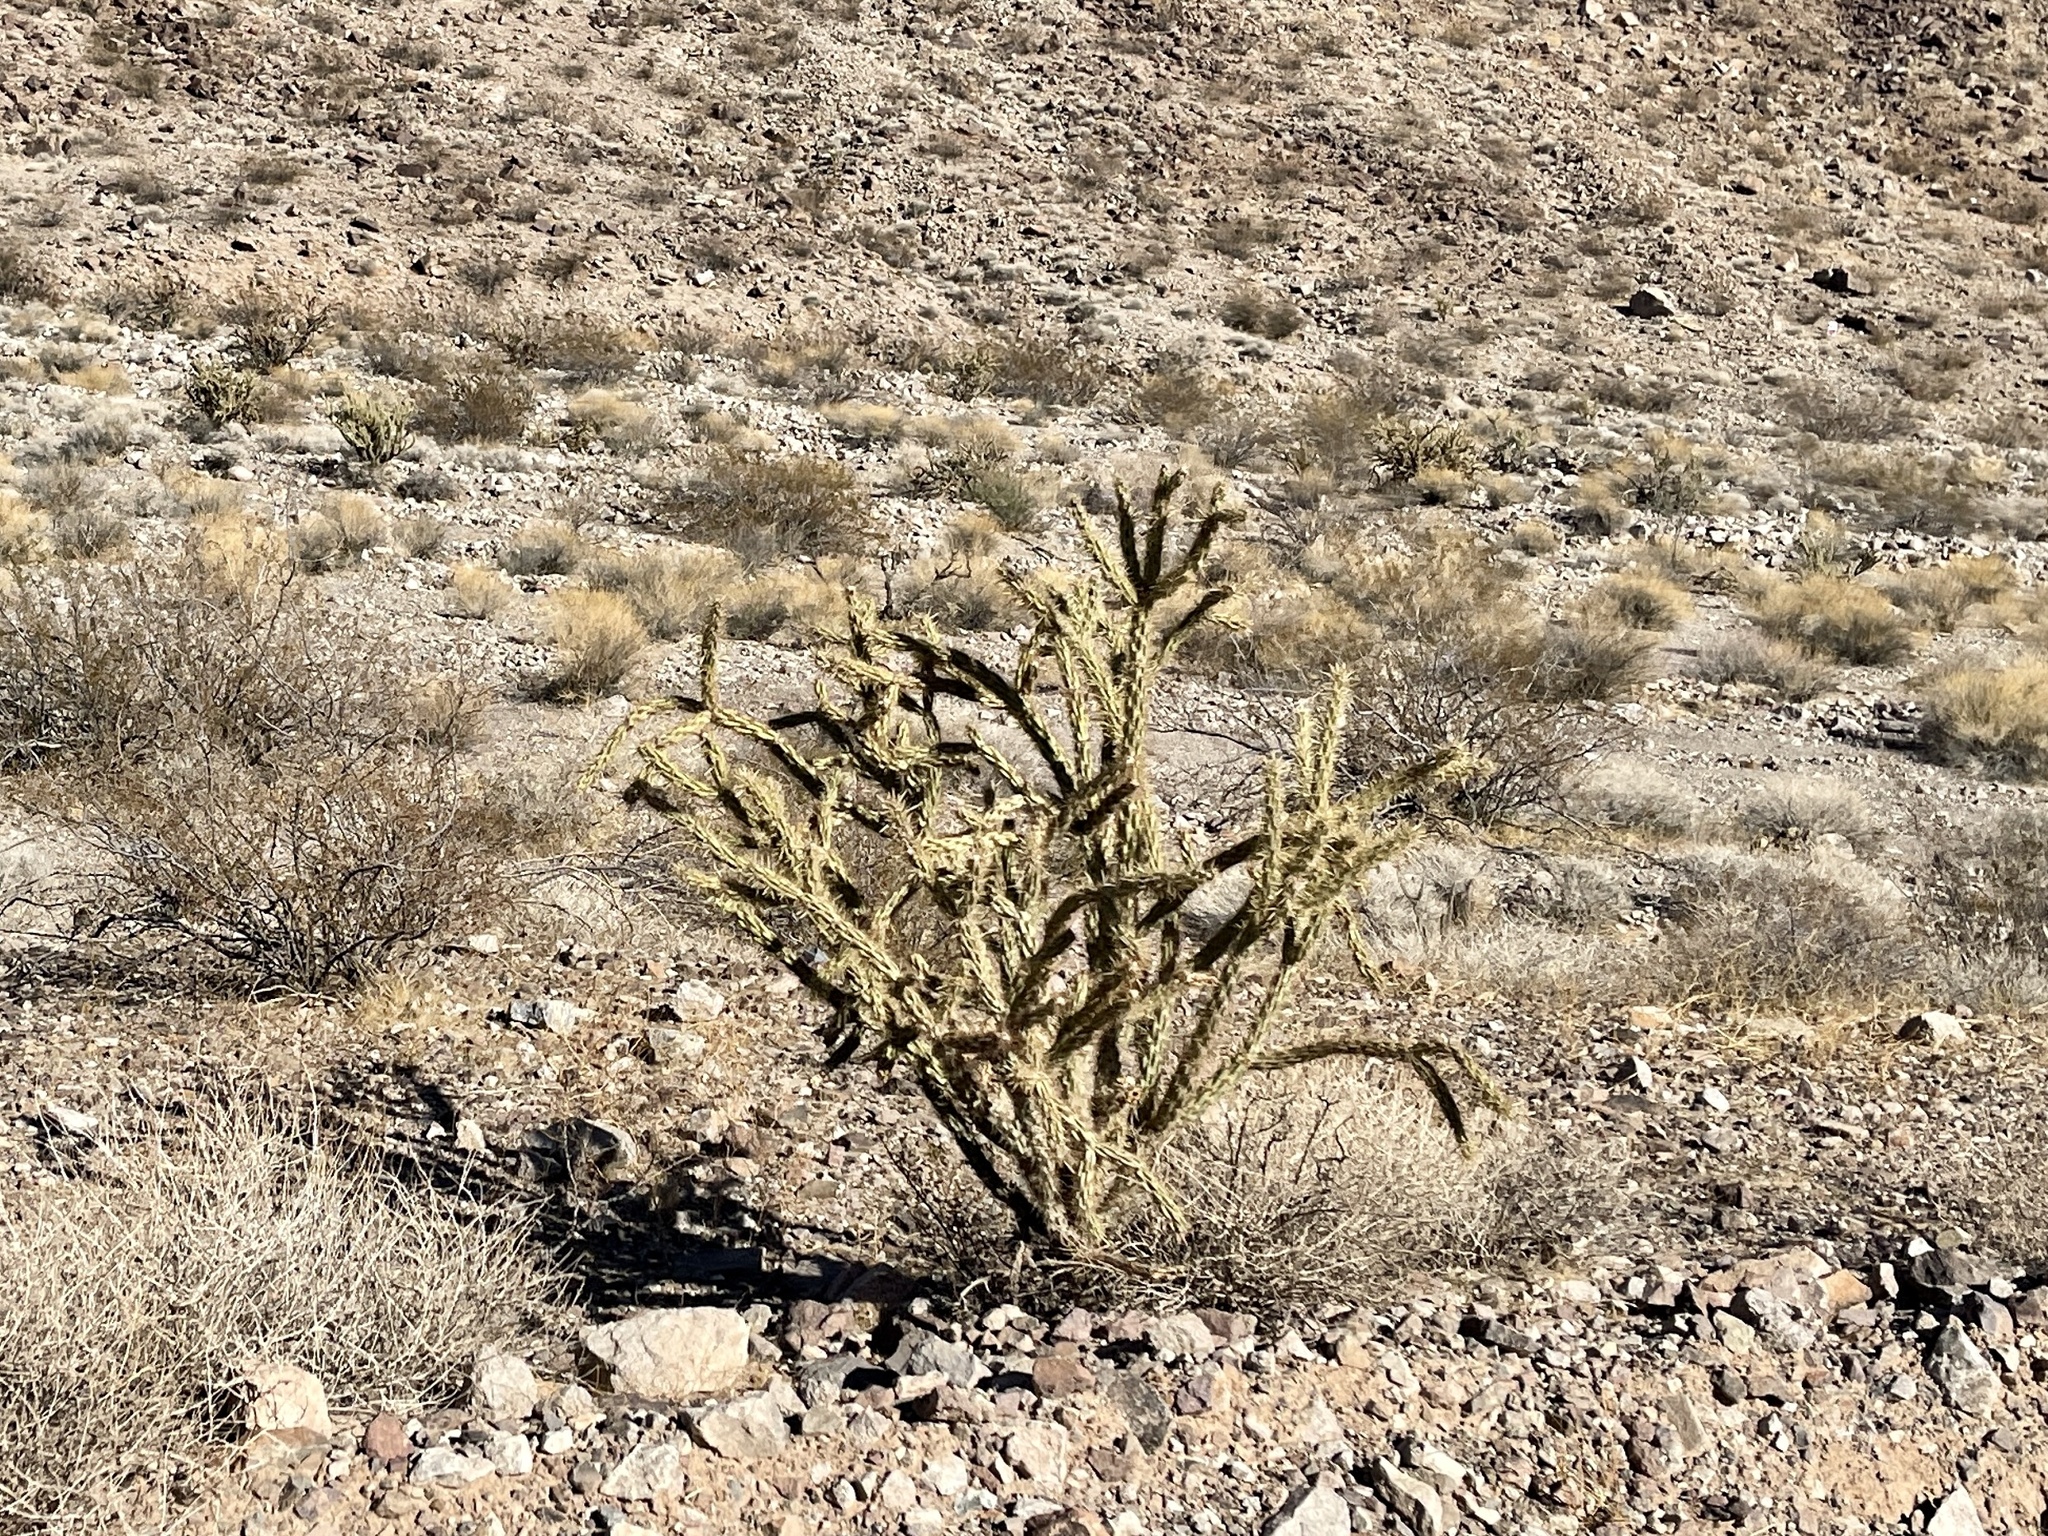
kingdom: Plantae
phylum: Tracheophyta
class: Magnoliopsida
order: Caryophyllales
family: Cactaceae
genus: Cylindropuntia
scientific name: Cylindropuntia acanthocarpa
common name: Buckhorn cholla
